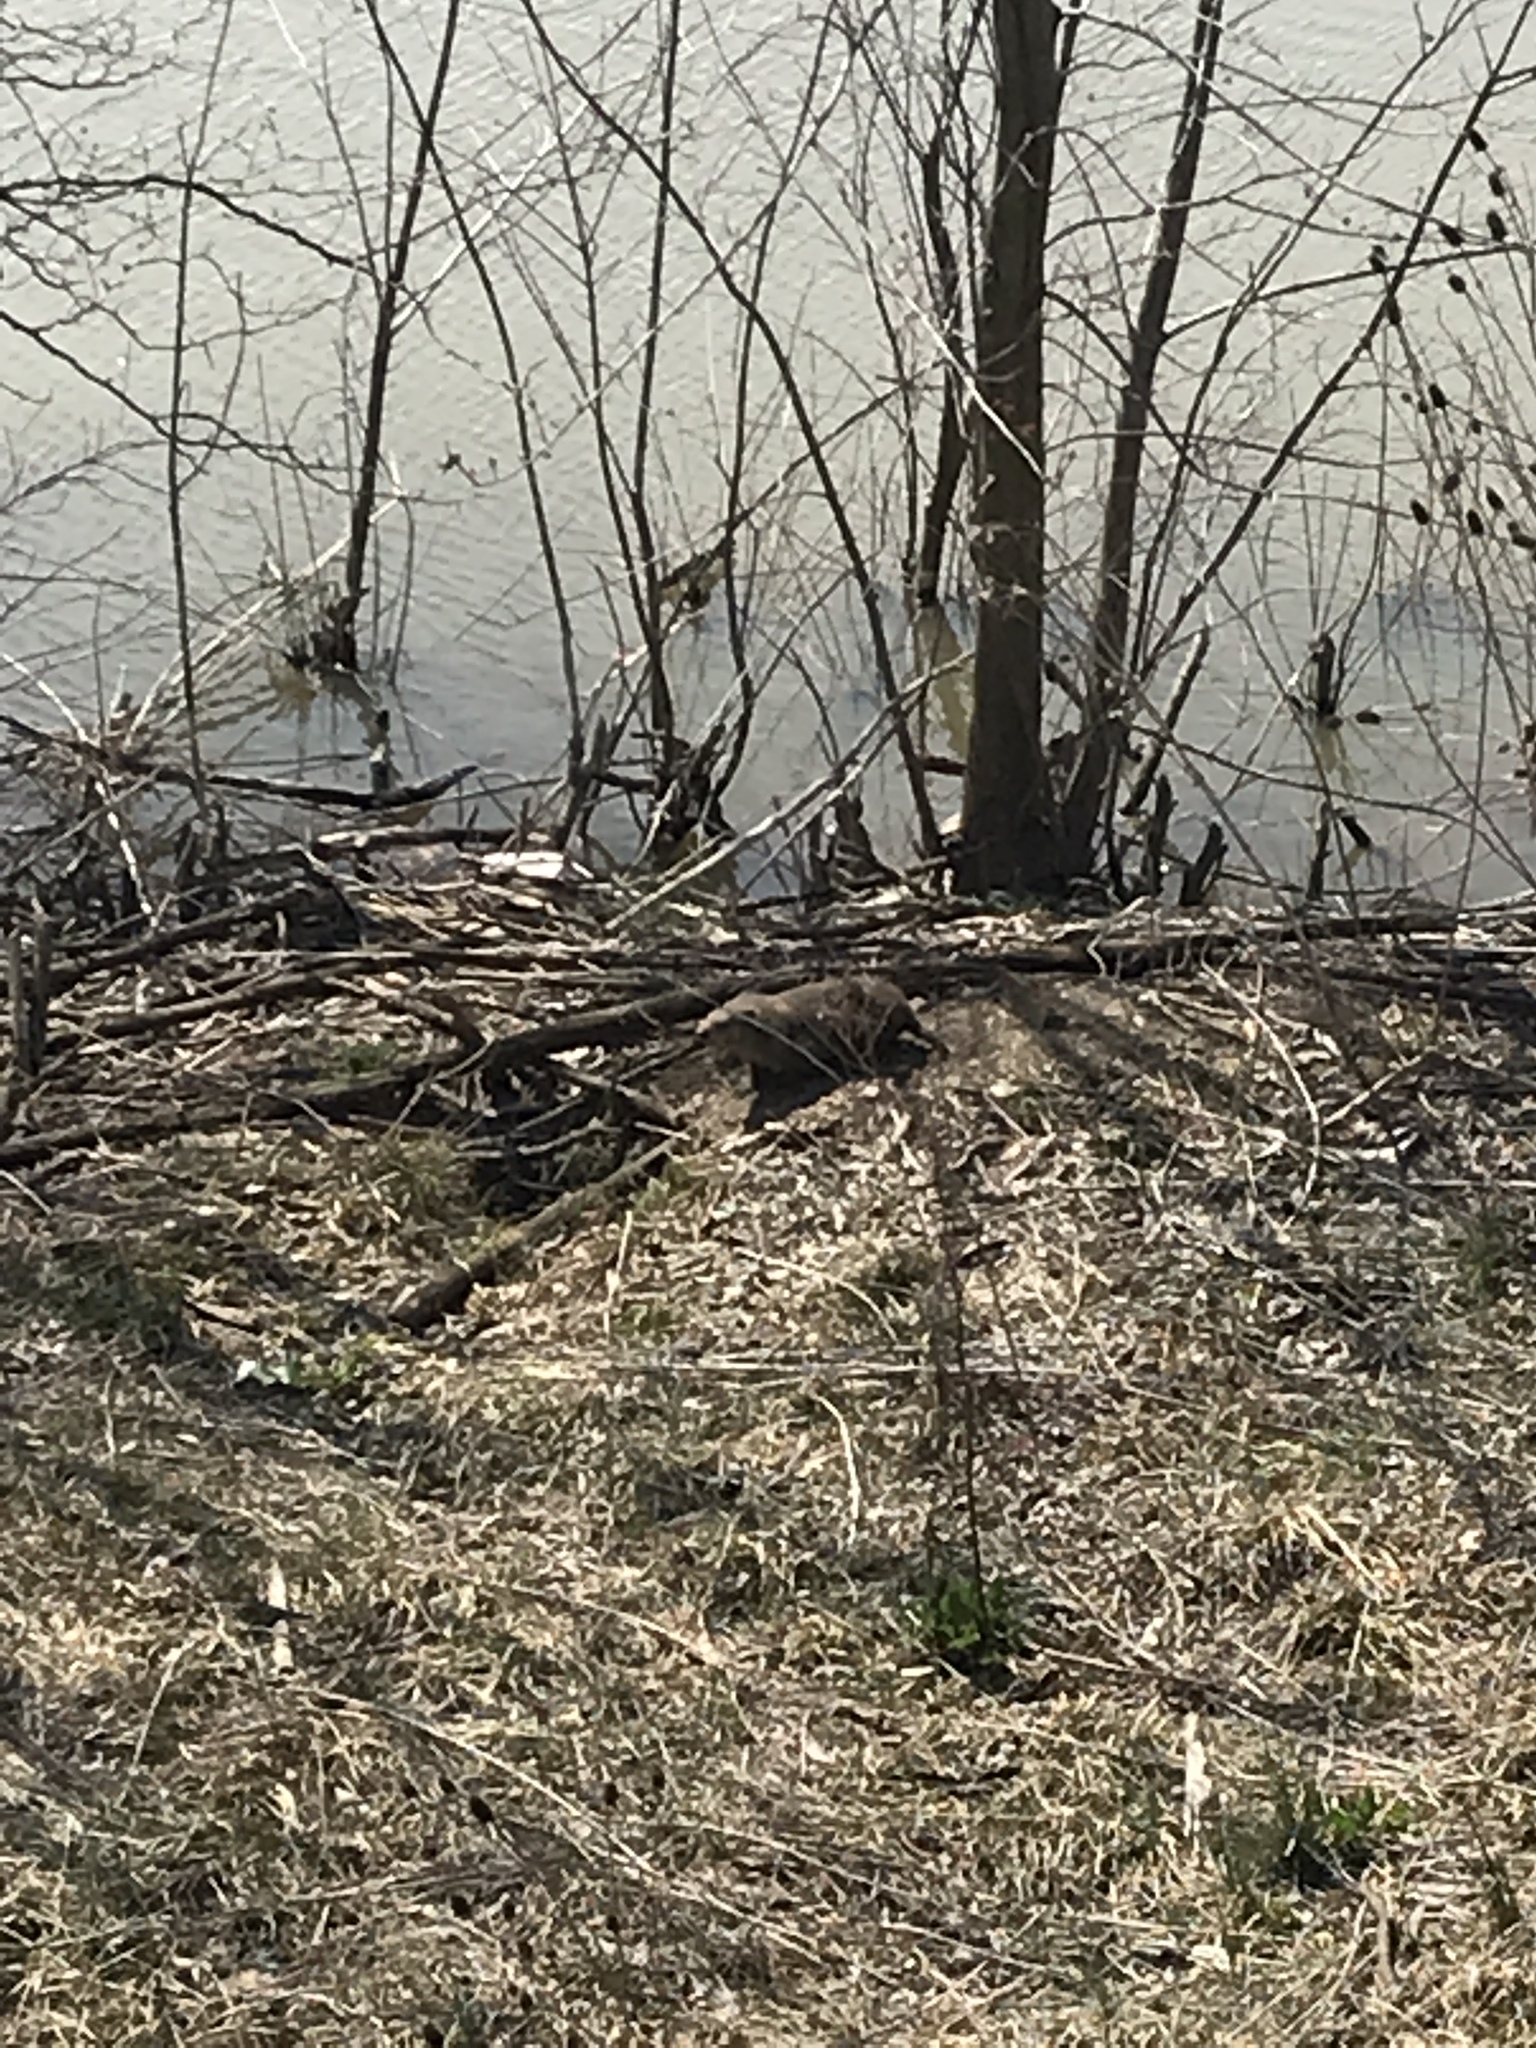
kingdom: Animalia
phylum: Chordata
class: Mammalia
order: Rodentia
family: Sciuridae
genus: Marmota
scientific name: Marmota monax
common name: Groundhog
